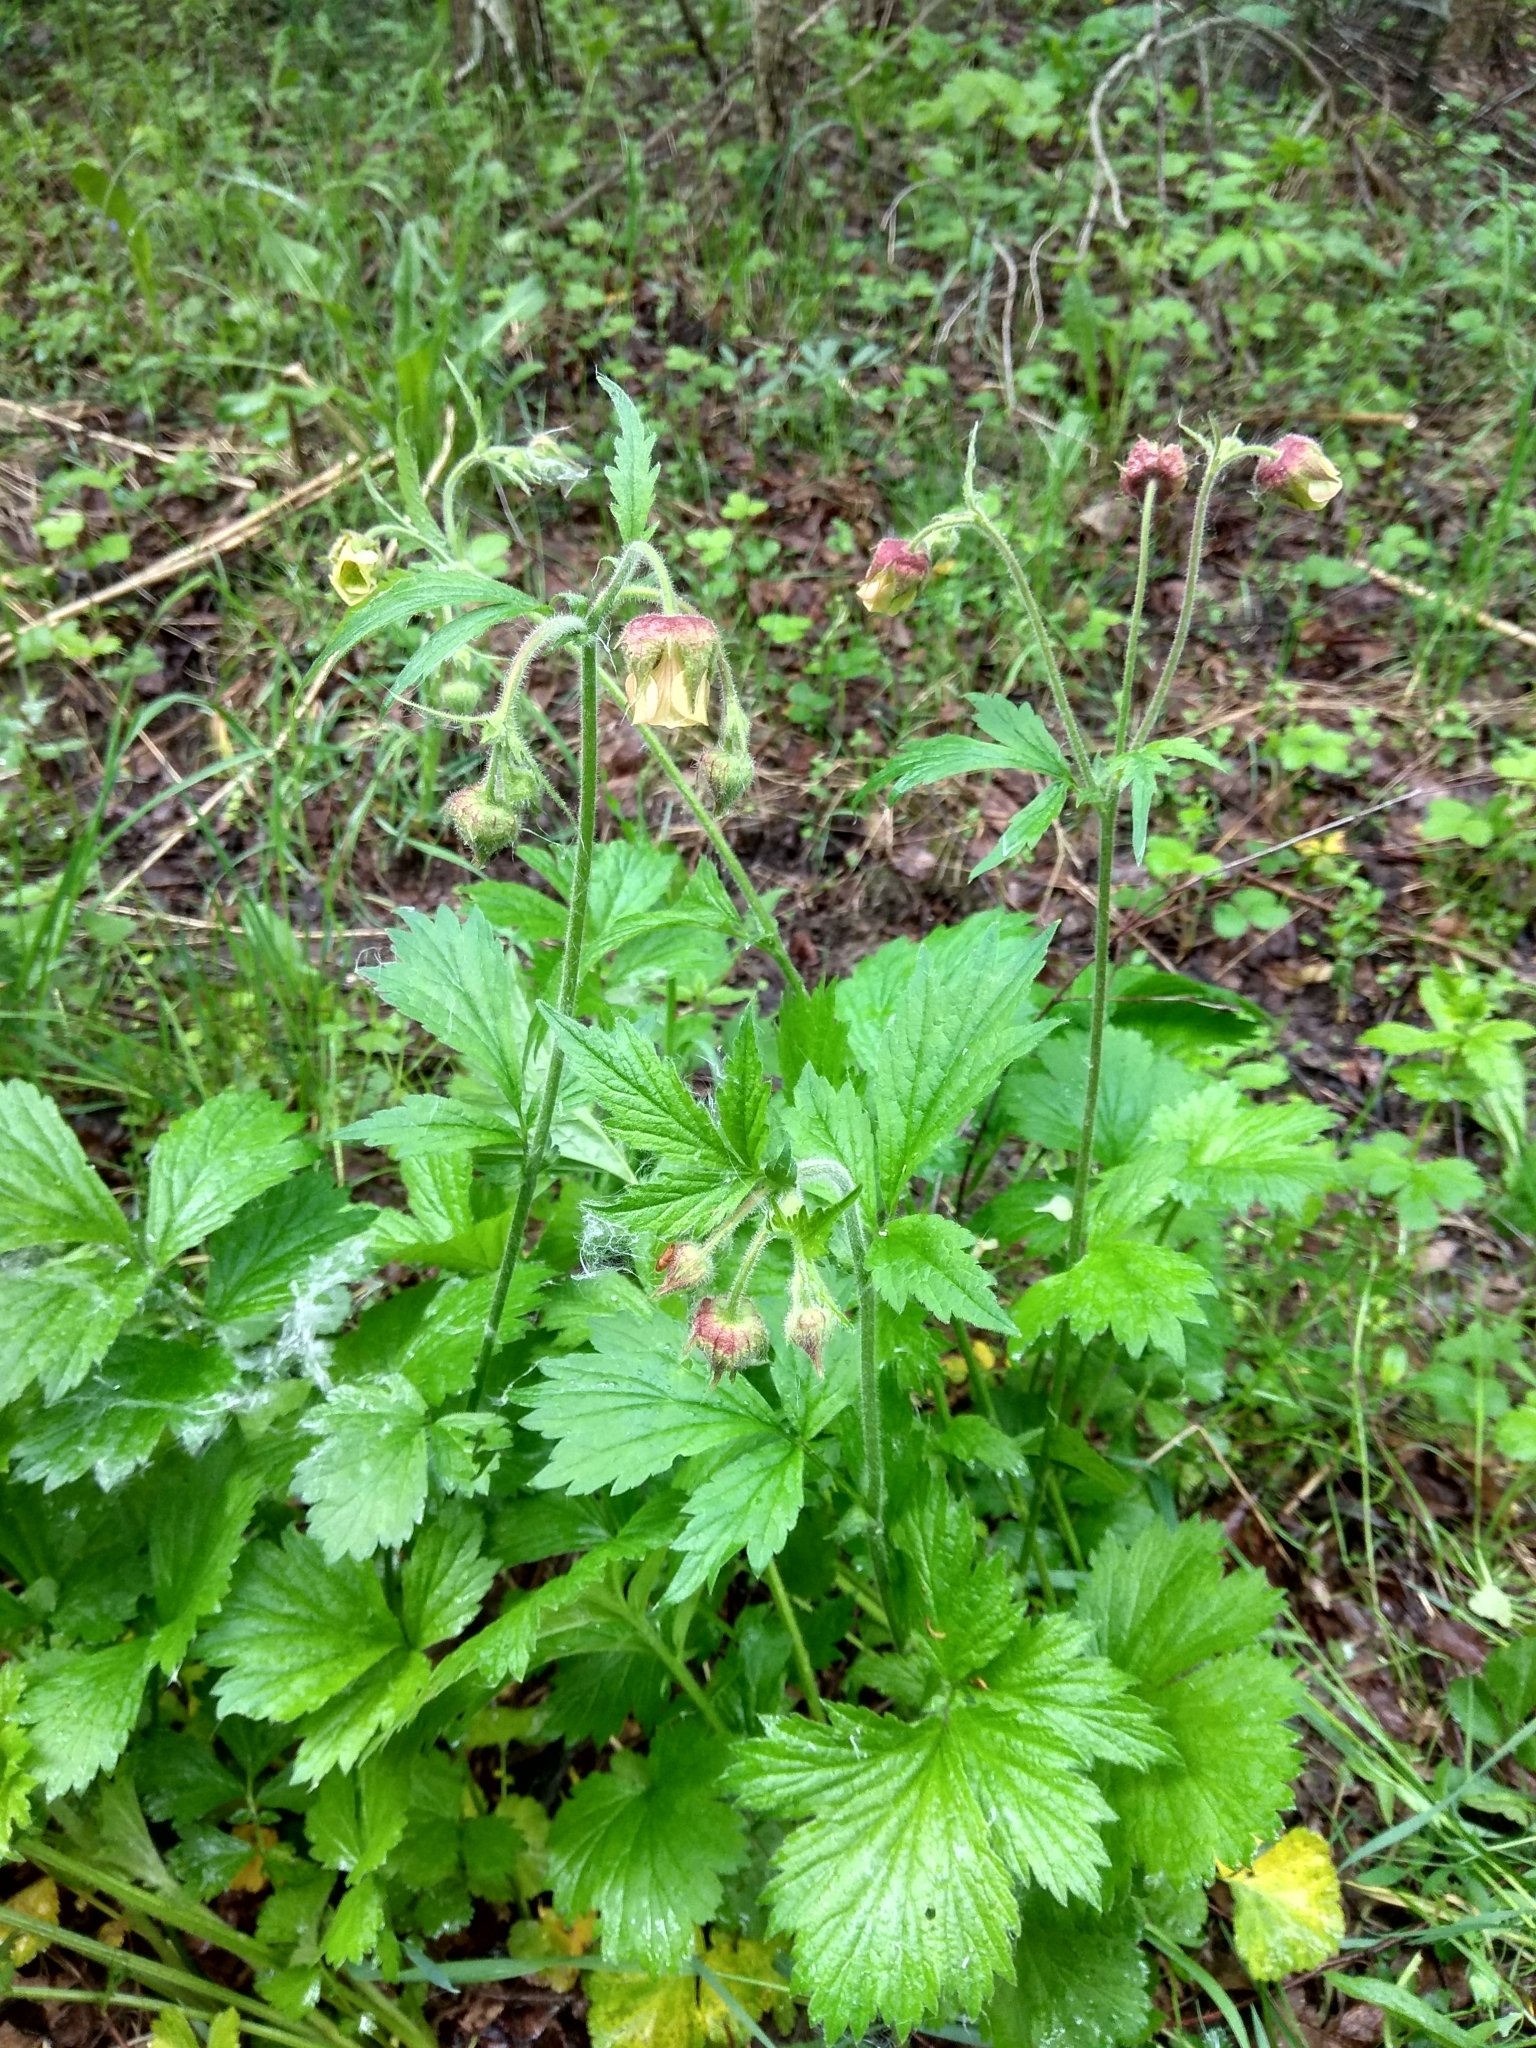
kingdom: Plantae
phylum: Tracheophyta
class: Magnoliopsida
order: Rosales
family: Rosaceae
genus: Geum
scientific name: Geum rivale
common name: Water avens
